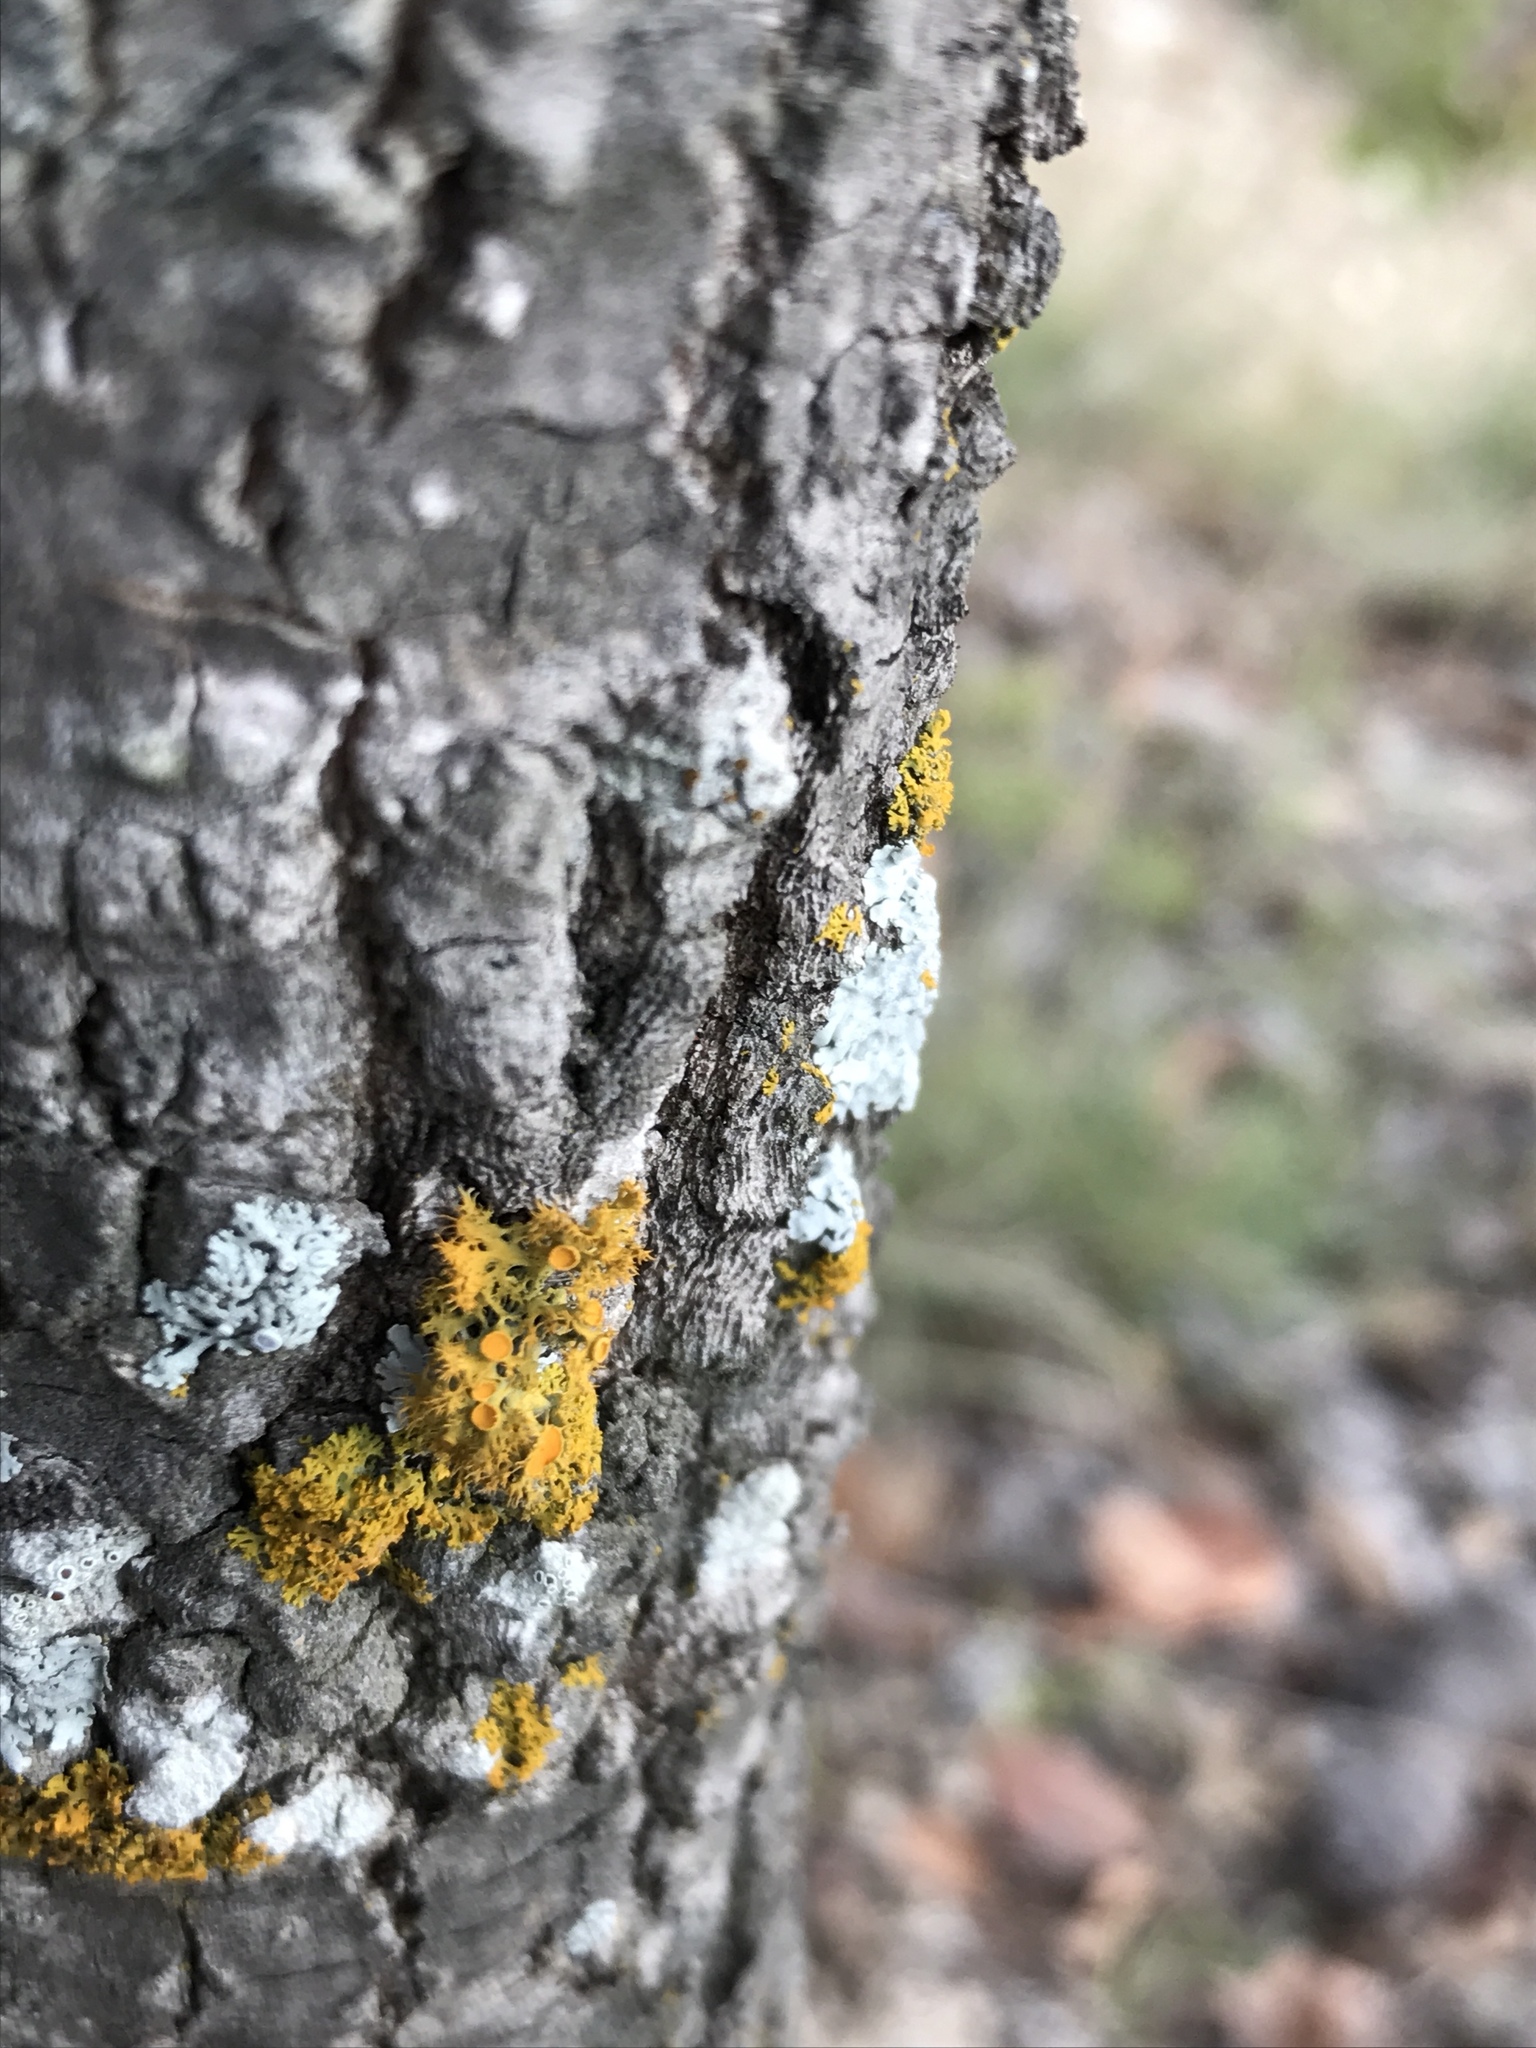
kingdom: Fungi
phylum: Ascomycota
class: Lecanoromycetes
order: Teloschistales
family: Teloschistaceae
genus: Niorma
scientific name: Niorma chrysophthalma
